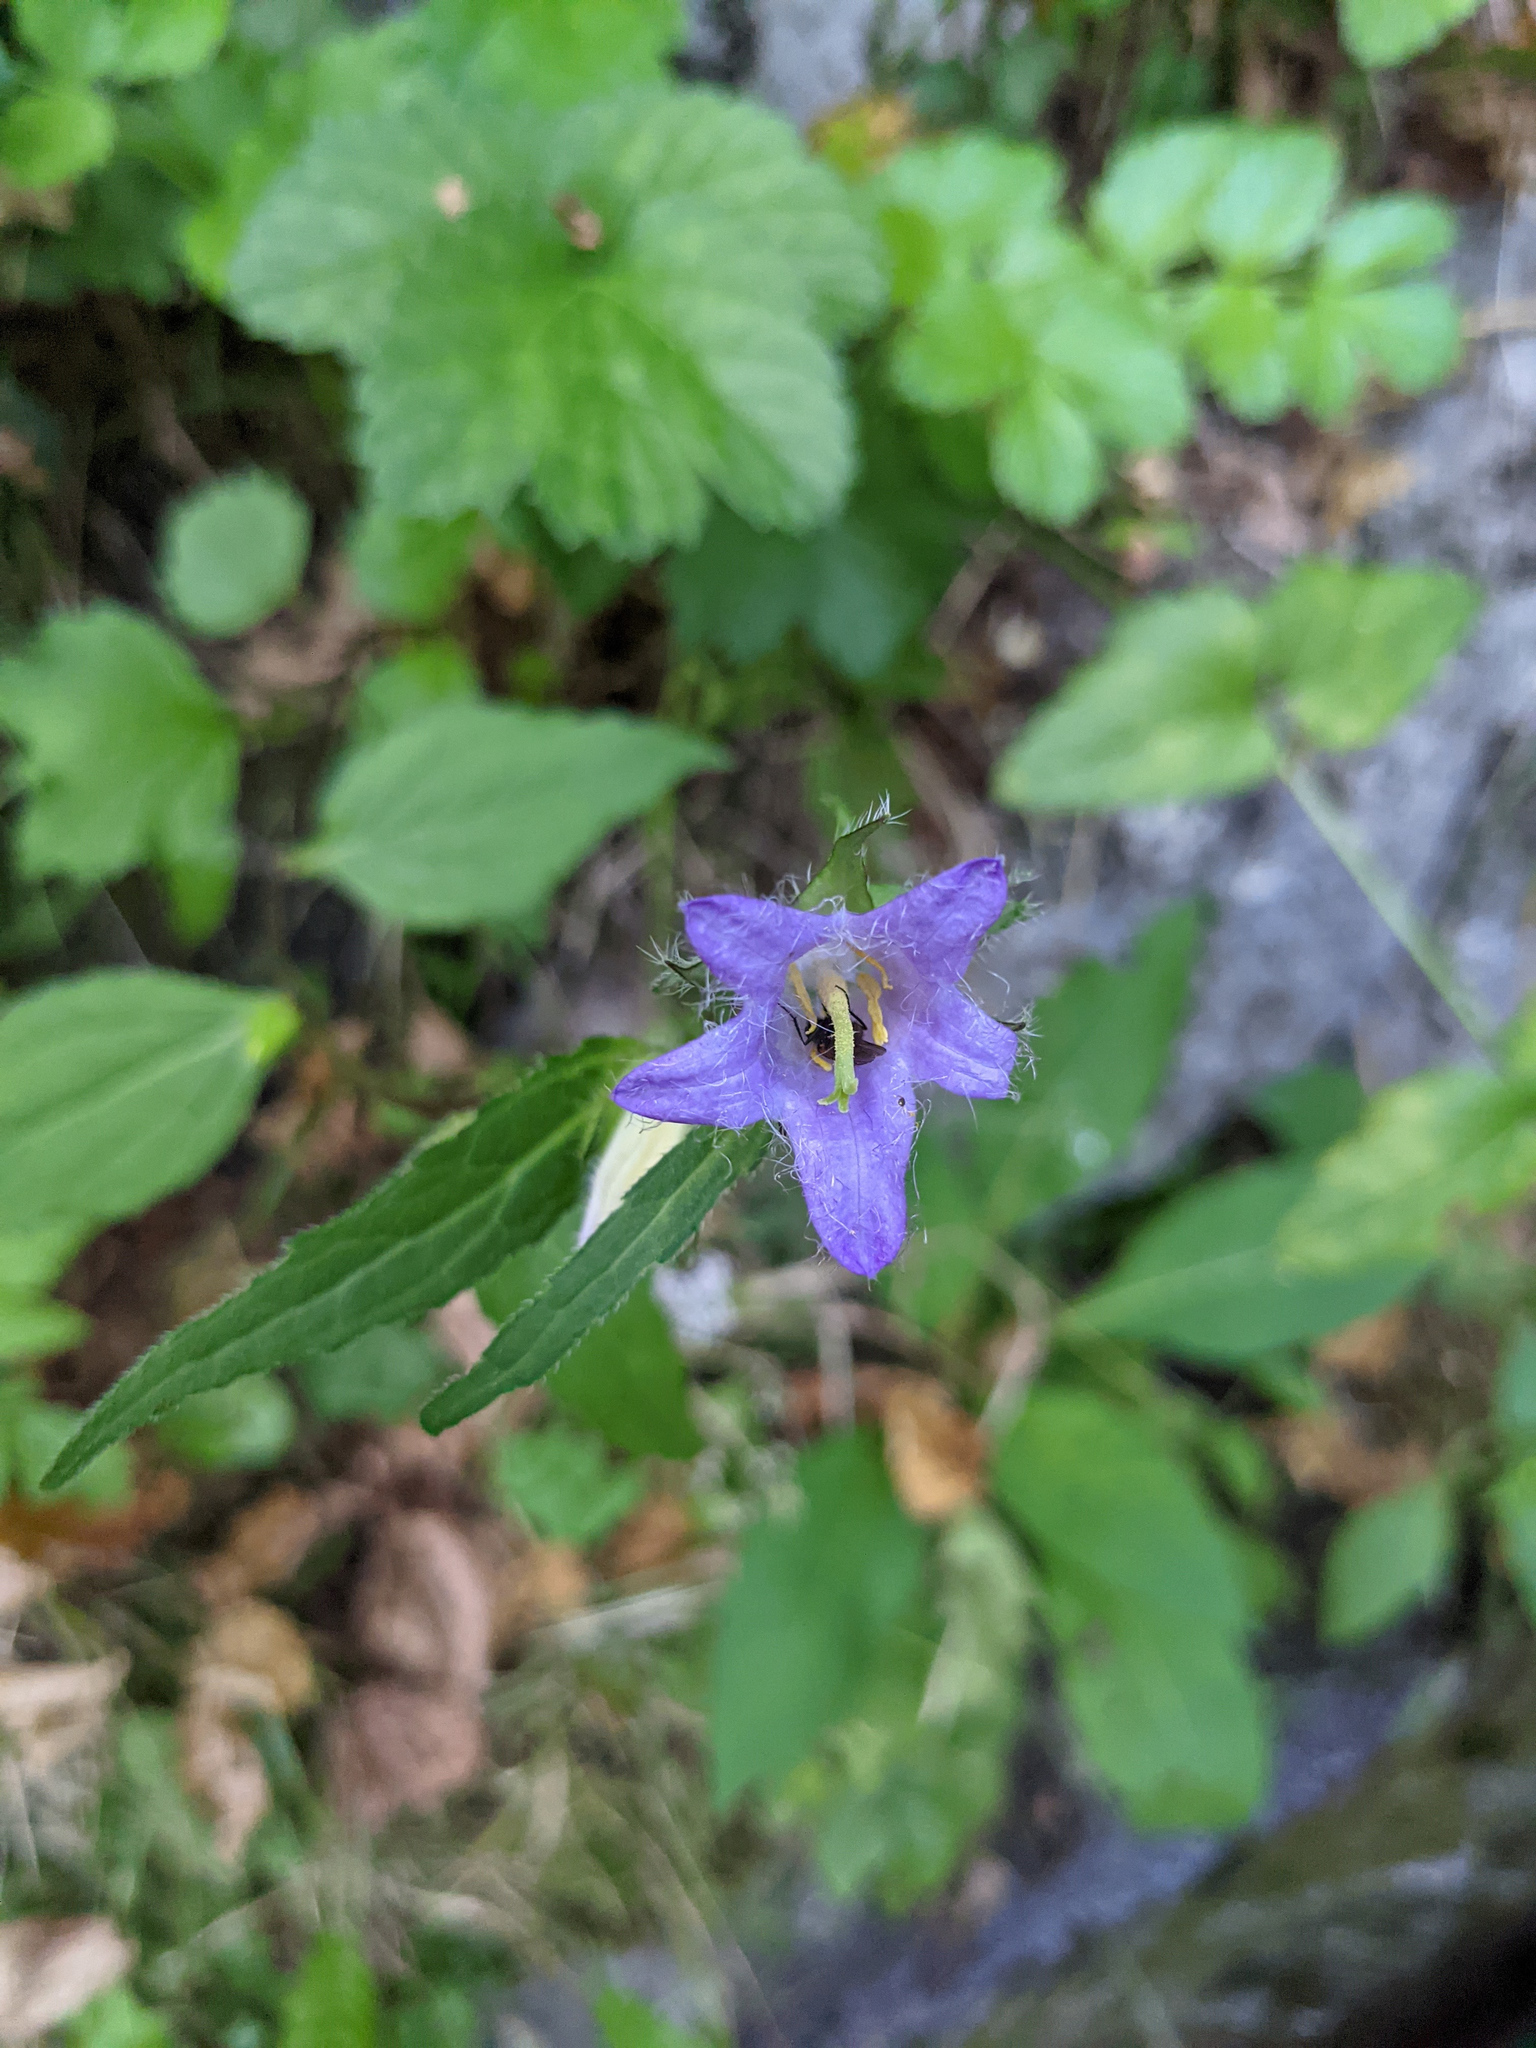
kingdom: Plantae
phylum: Tracheophyta
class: Magnoliopsida
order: Asterales
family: Campanulaceae
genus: Campanula
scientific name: Campanula trachelium
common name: Nettle-leaved bellflower
